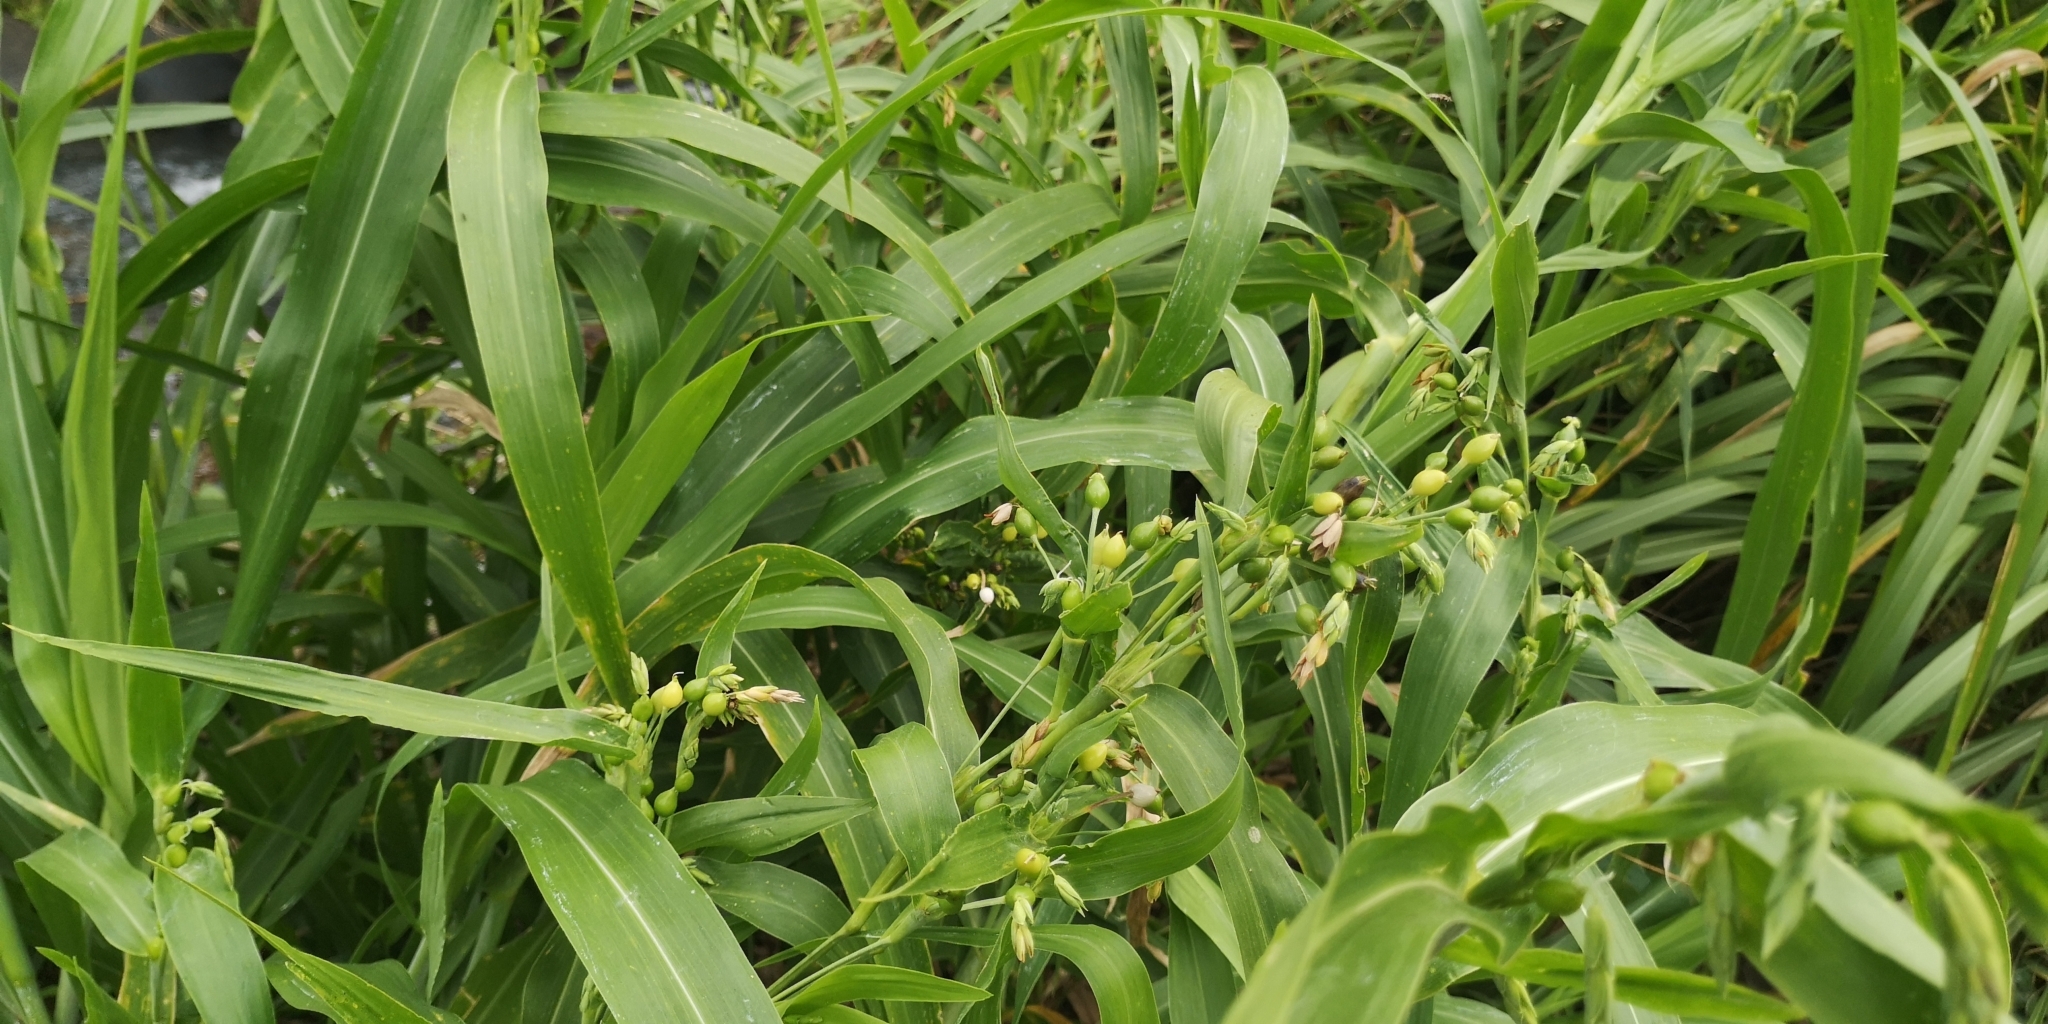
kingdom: Plantae
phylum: Tracheophyta
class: Liliopsida
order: Poales
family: Poaceae
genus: Coix
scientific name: Coix lacryma-jobi
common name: Job's tears
